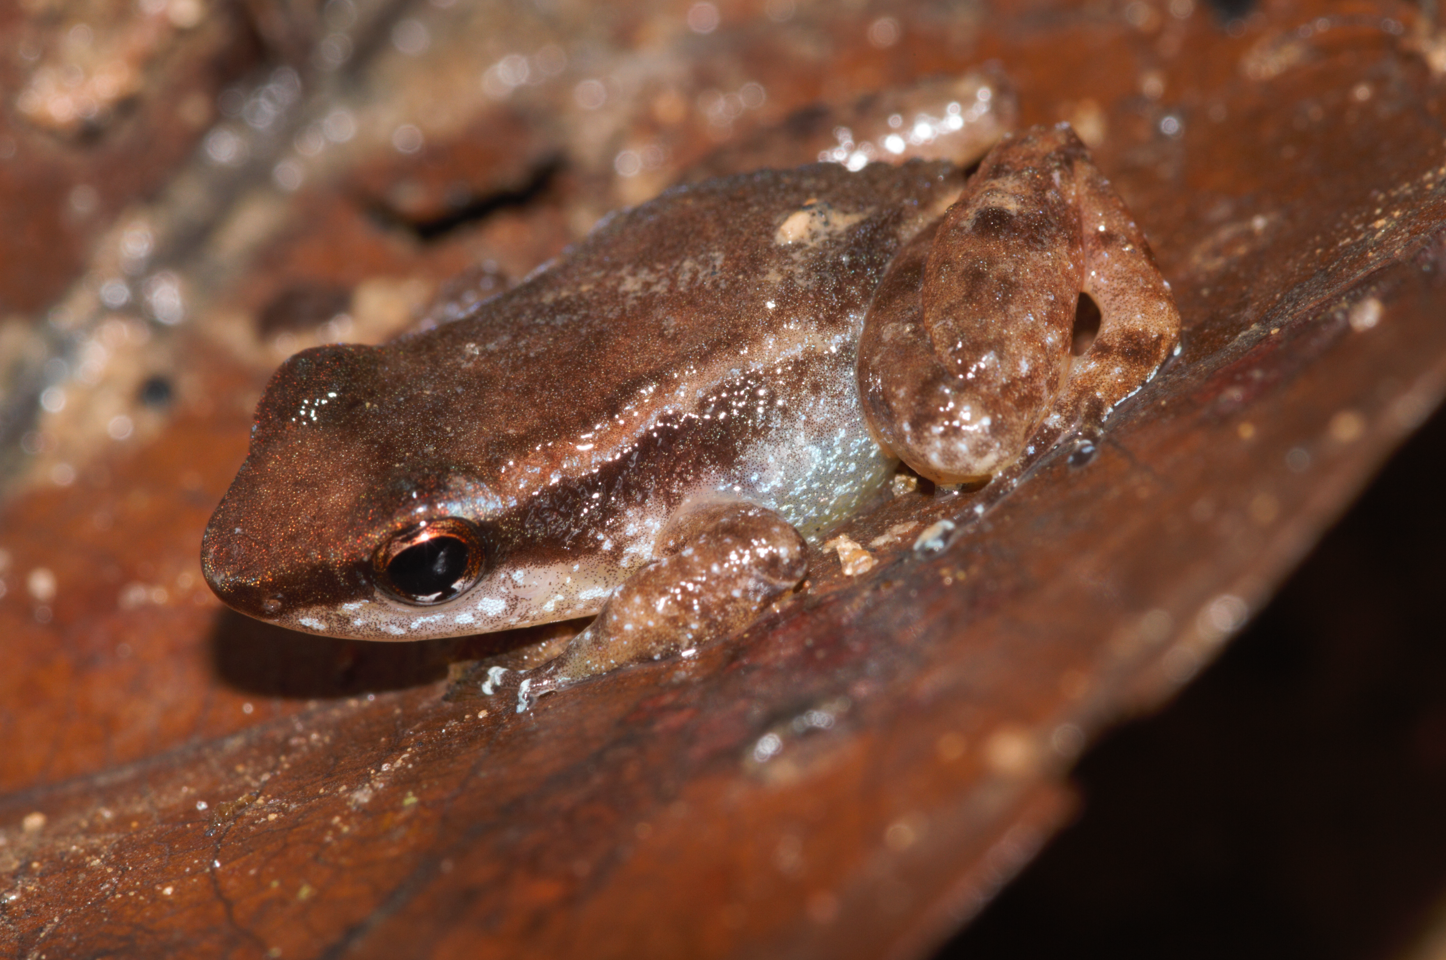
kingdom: Animalia
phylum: Chordata
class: Amphibia
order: Anura
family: Aromobatidae
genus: Anomaloglossus
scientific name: Anomaloglossus baeobatrachus
